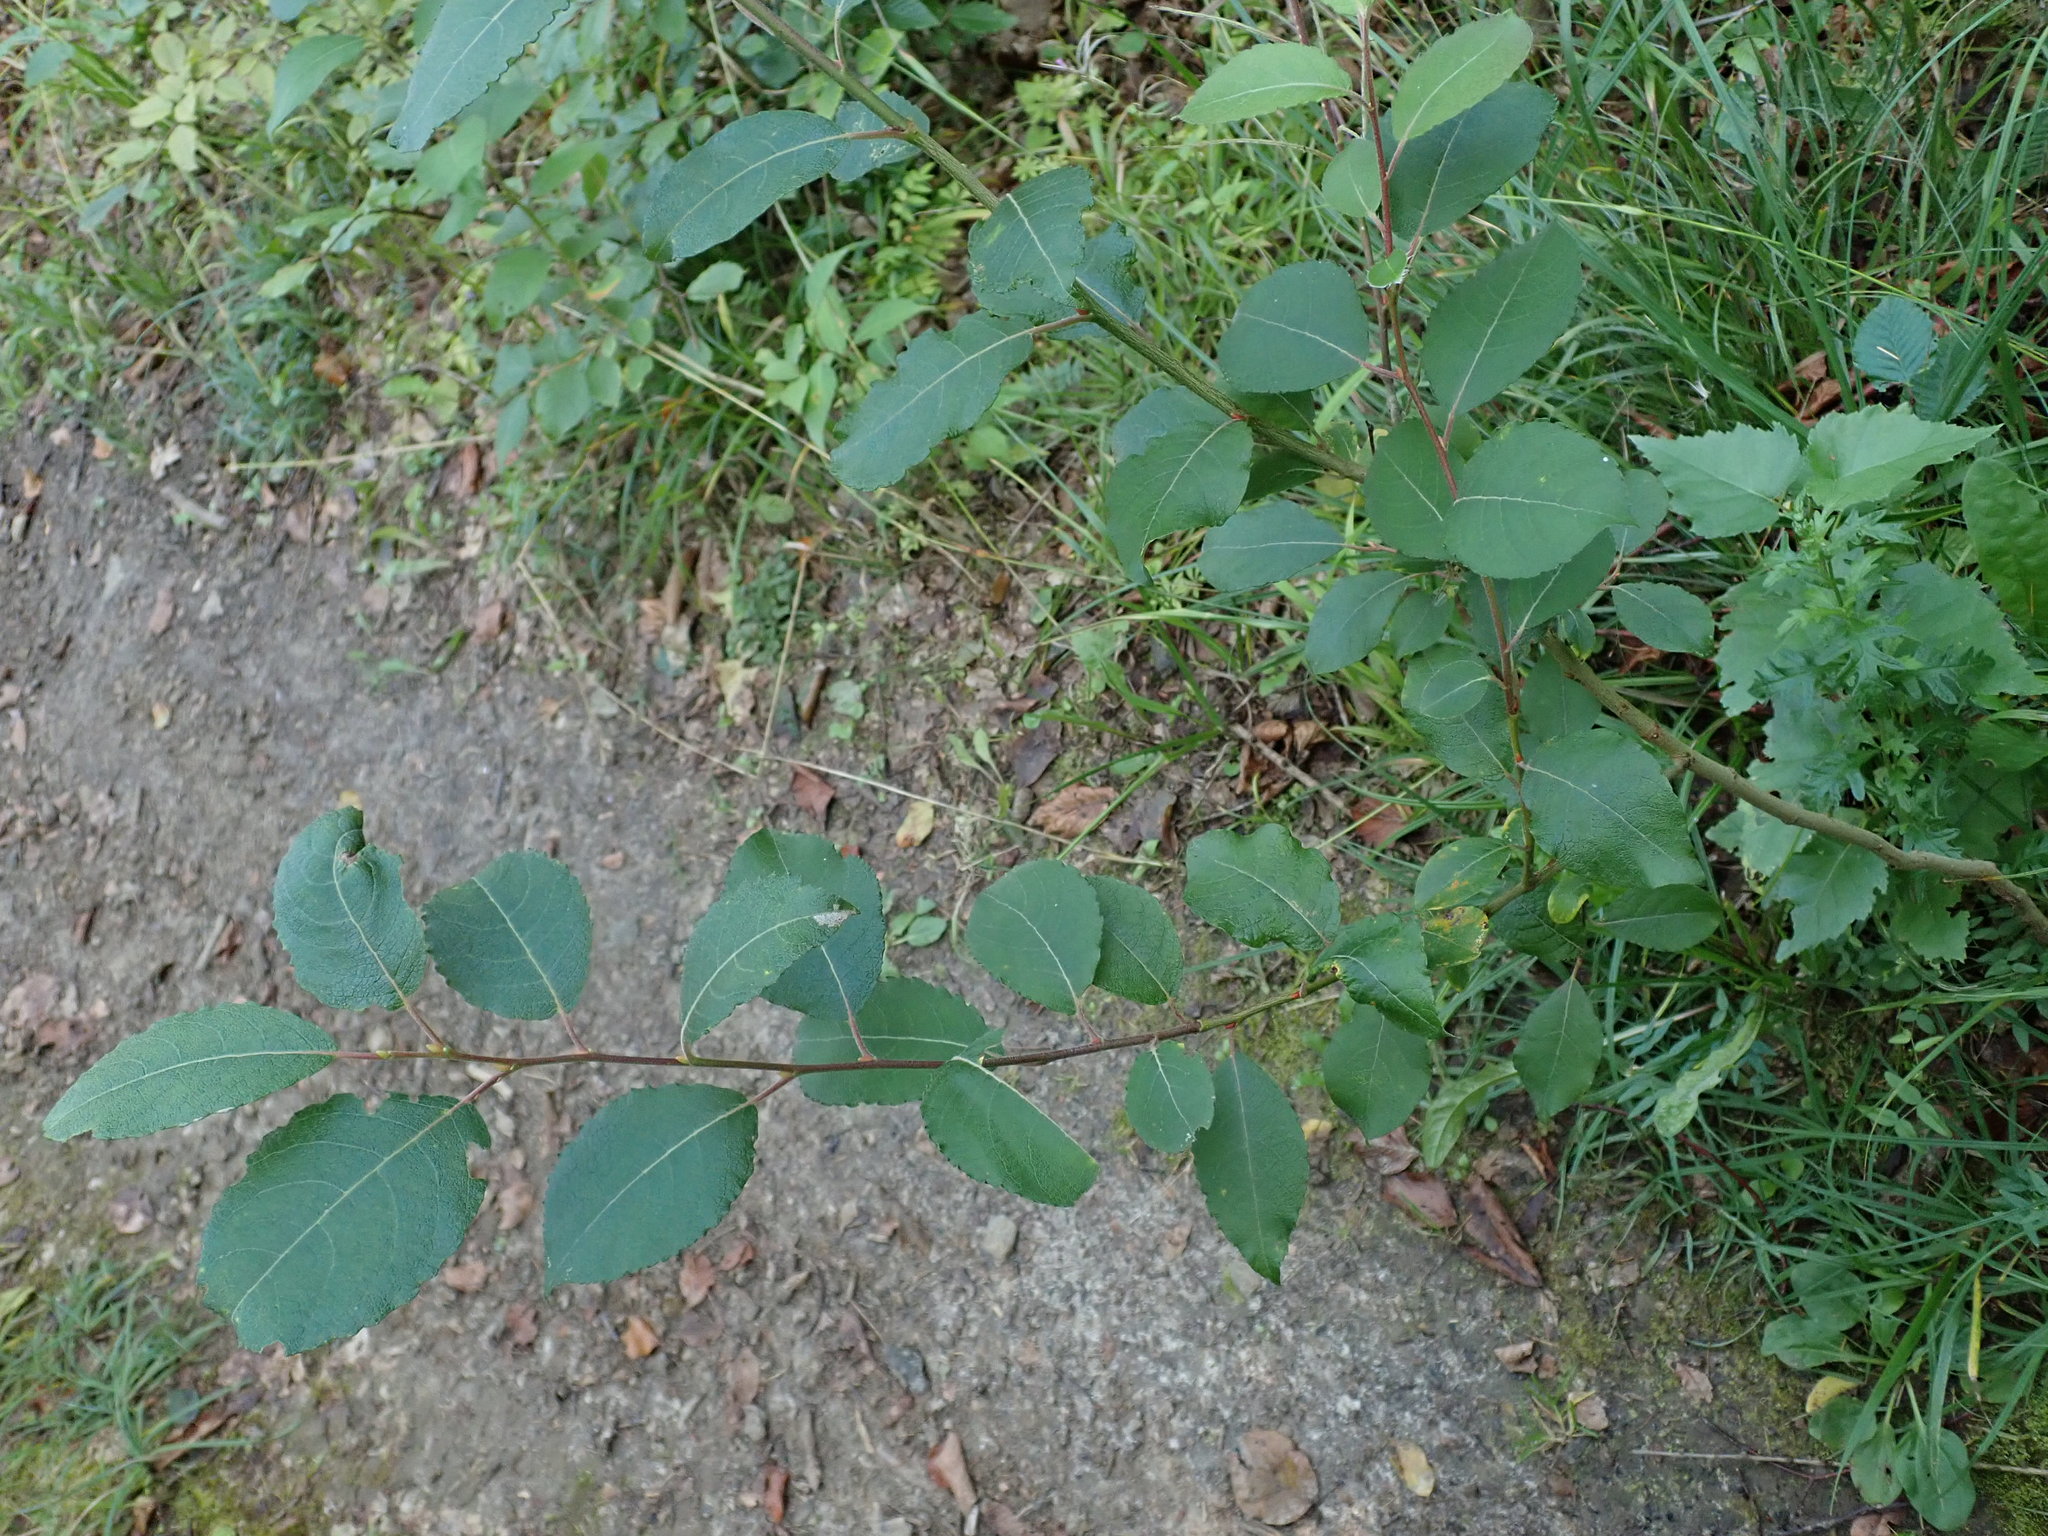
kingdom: Plantae
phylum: Tracheophyta
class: Magnoliopsida
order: Malpighiales
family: Salicaceae
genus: Salix
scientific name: Salix caprea
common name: Goat willow
